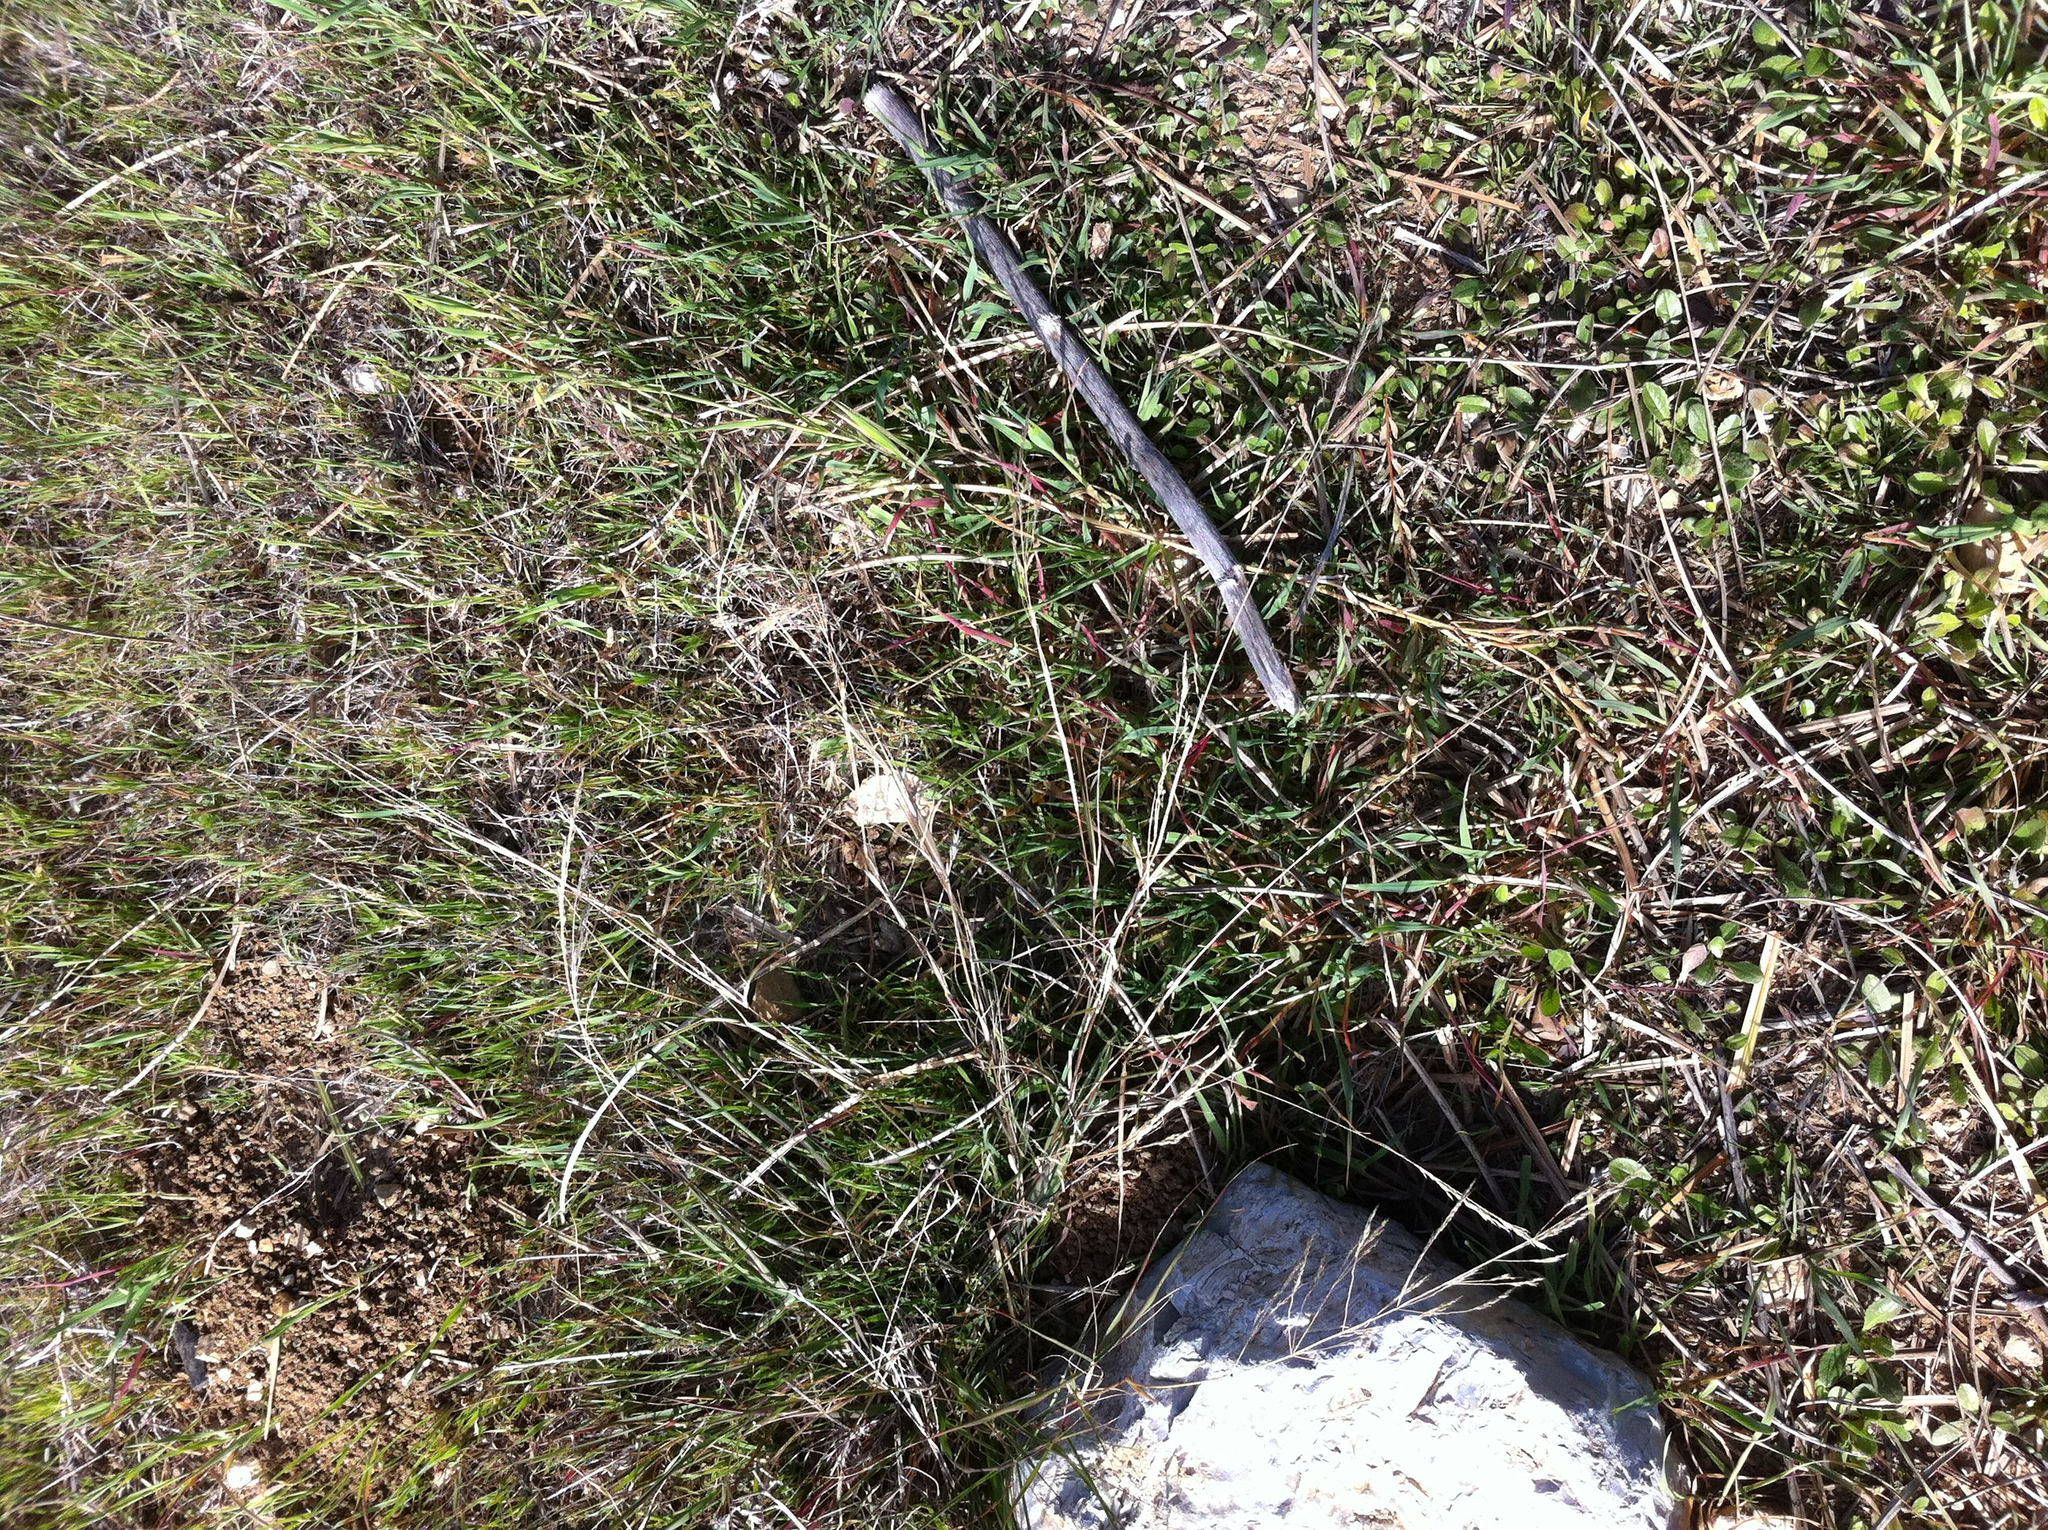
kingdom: Plantae
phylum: Tracheophyta
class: Liliopsida
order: Poales
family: Poaceae
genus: Oloptum
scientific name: Oloptum miliaceum
